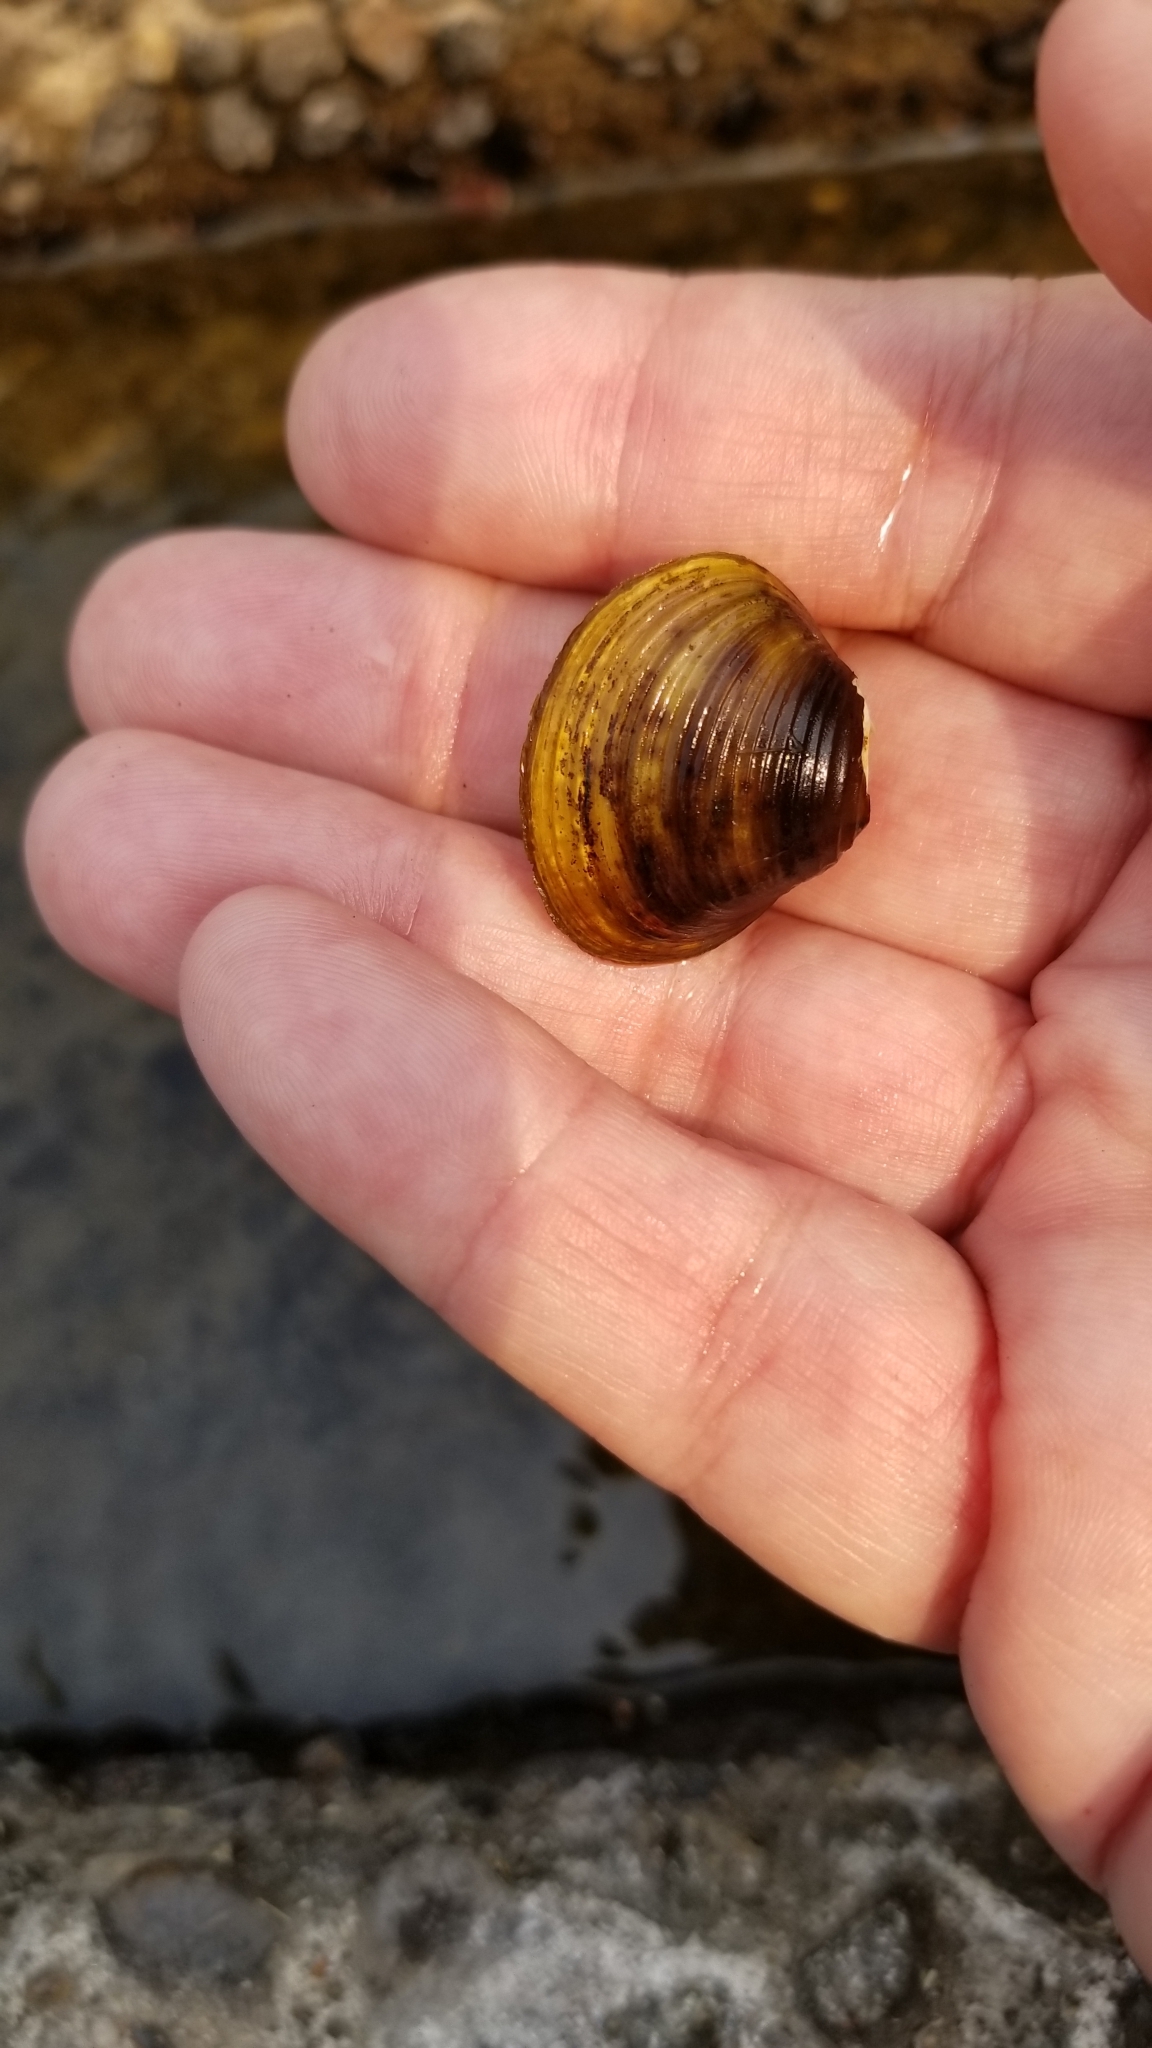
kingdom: Animalia
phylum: Mollusca
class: Bivalvia
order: Venerida
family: Cyrenidae
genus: Corbicula
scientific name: Corbicula fluminea
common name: Asian clam
